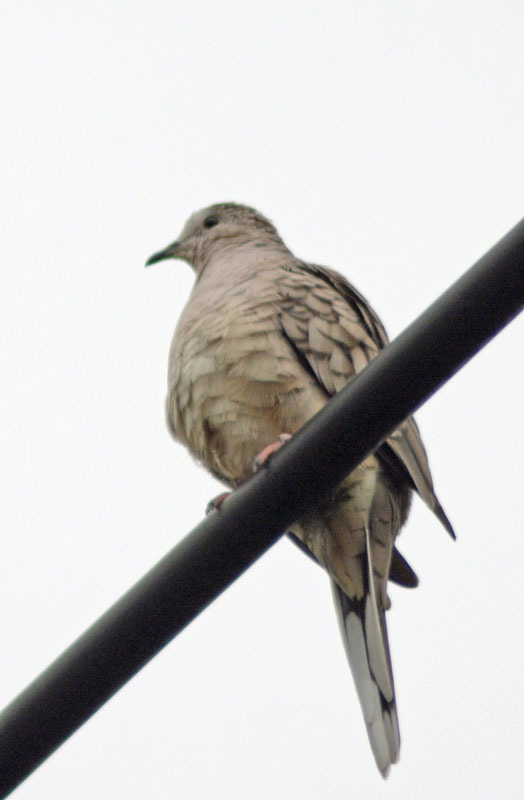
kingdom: Animalia
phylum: Chordata
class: Aves
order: Columbiformes
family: Columbidae
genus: Columbina
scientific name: Columbina inca
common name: Inca dove
